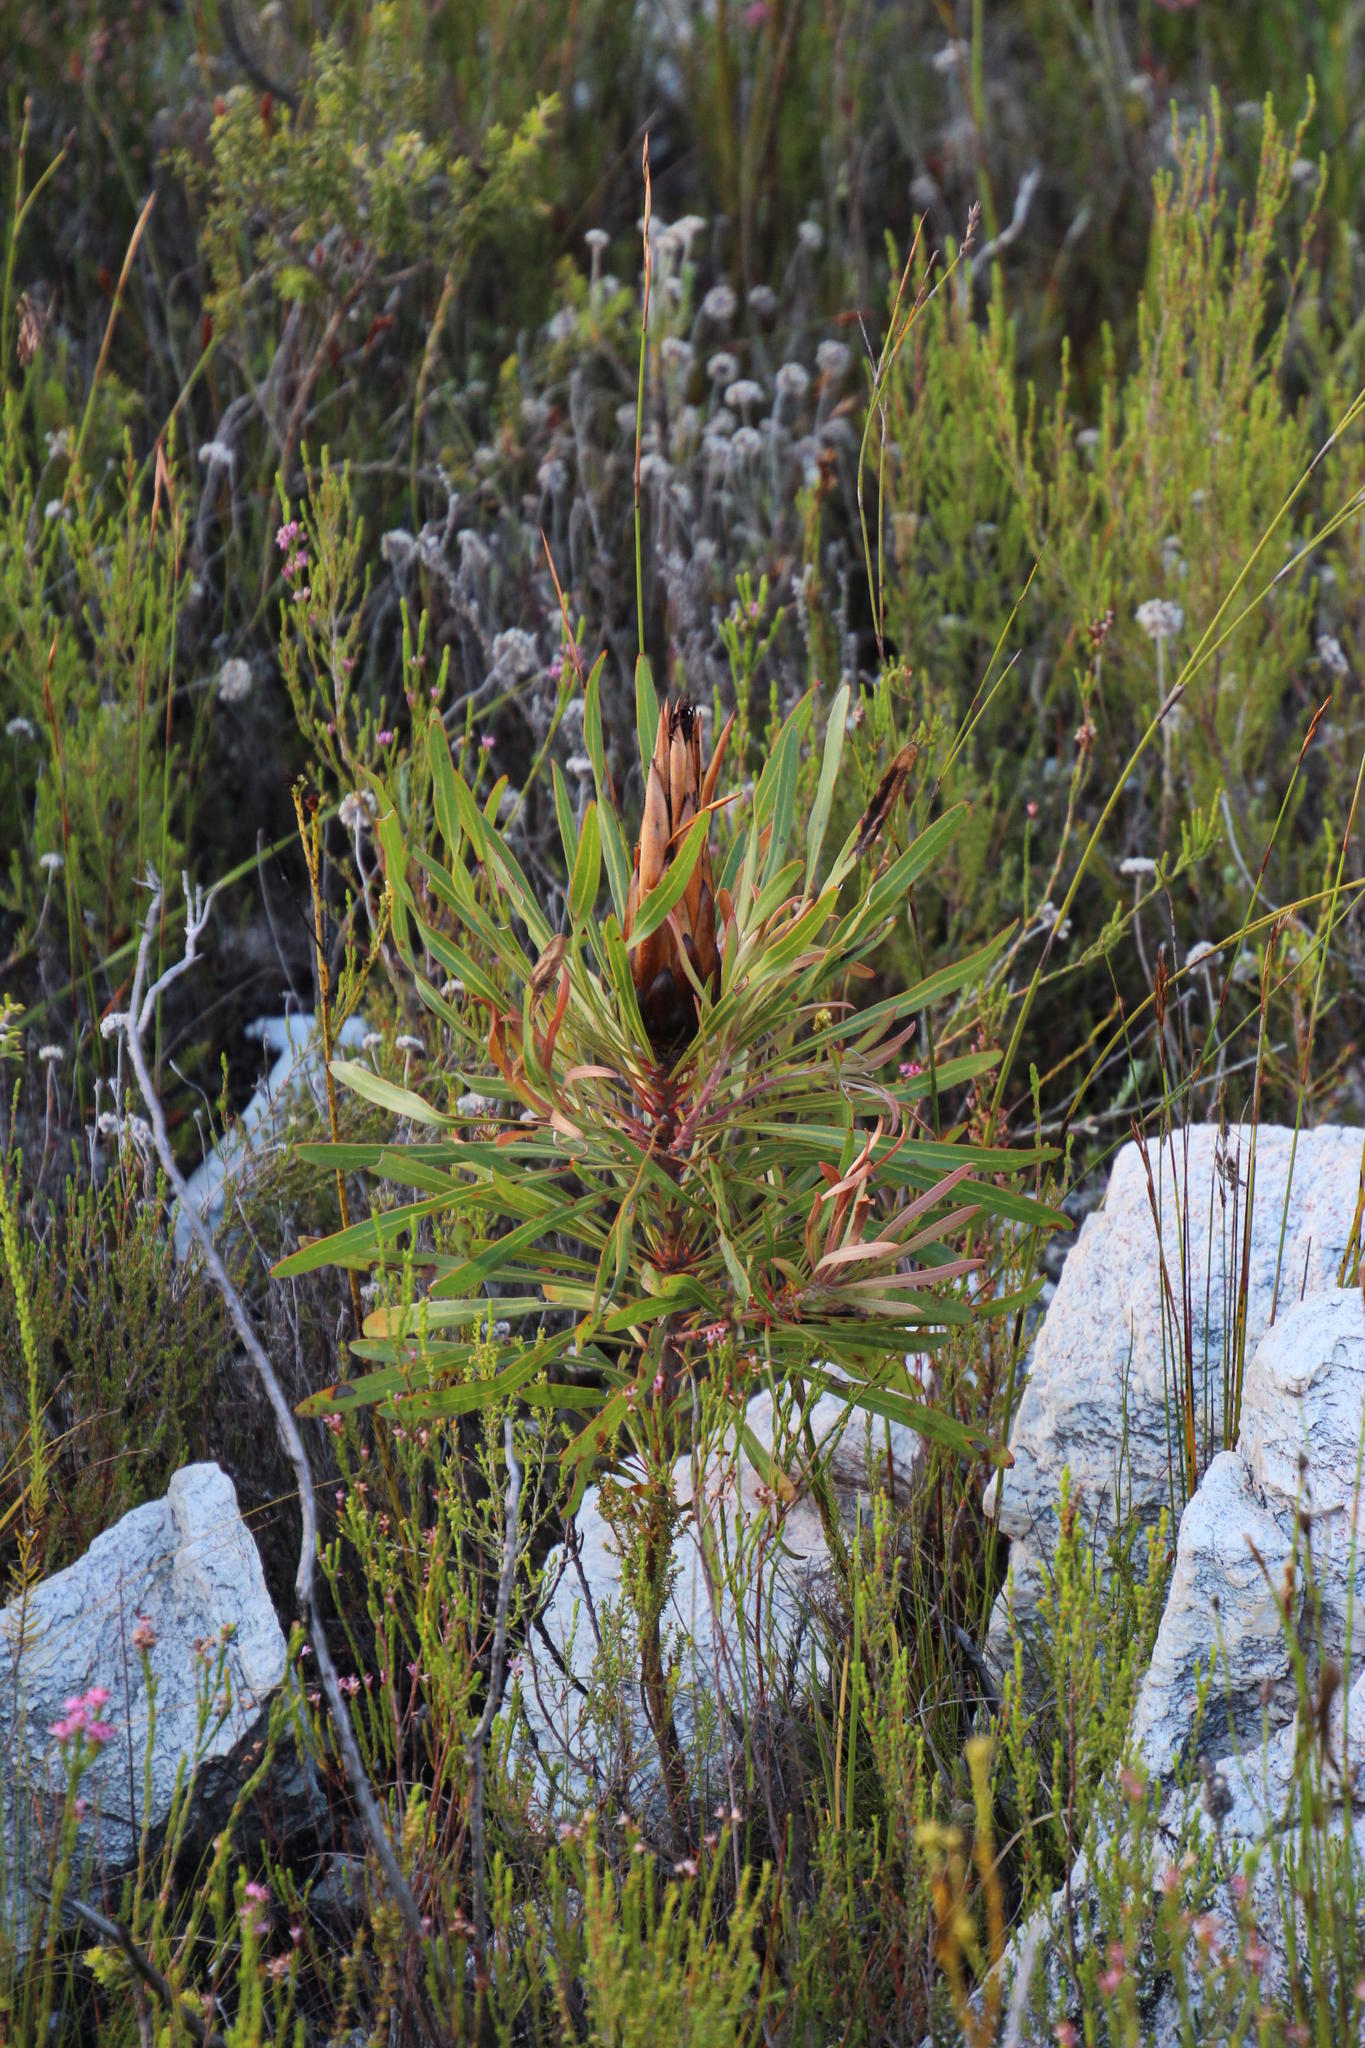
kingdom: Plantae
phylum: Tracheophyta
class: Magnoliopsida
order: Proteales
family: Proteaceae
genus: Protea
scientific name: Protea longifolia
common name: Long-leaf sugarbush
